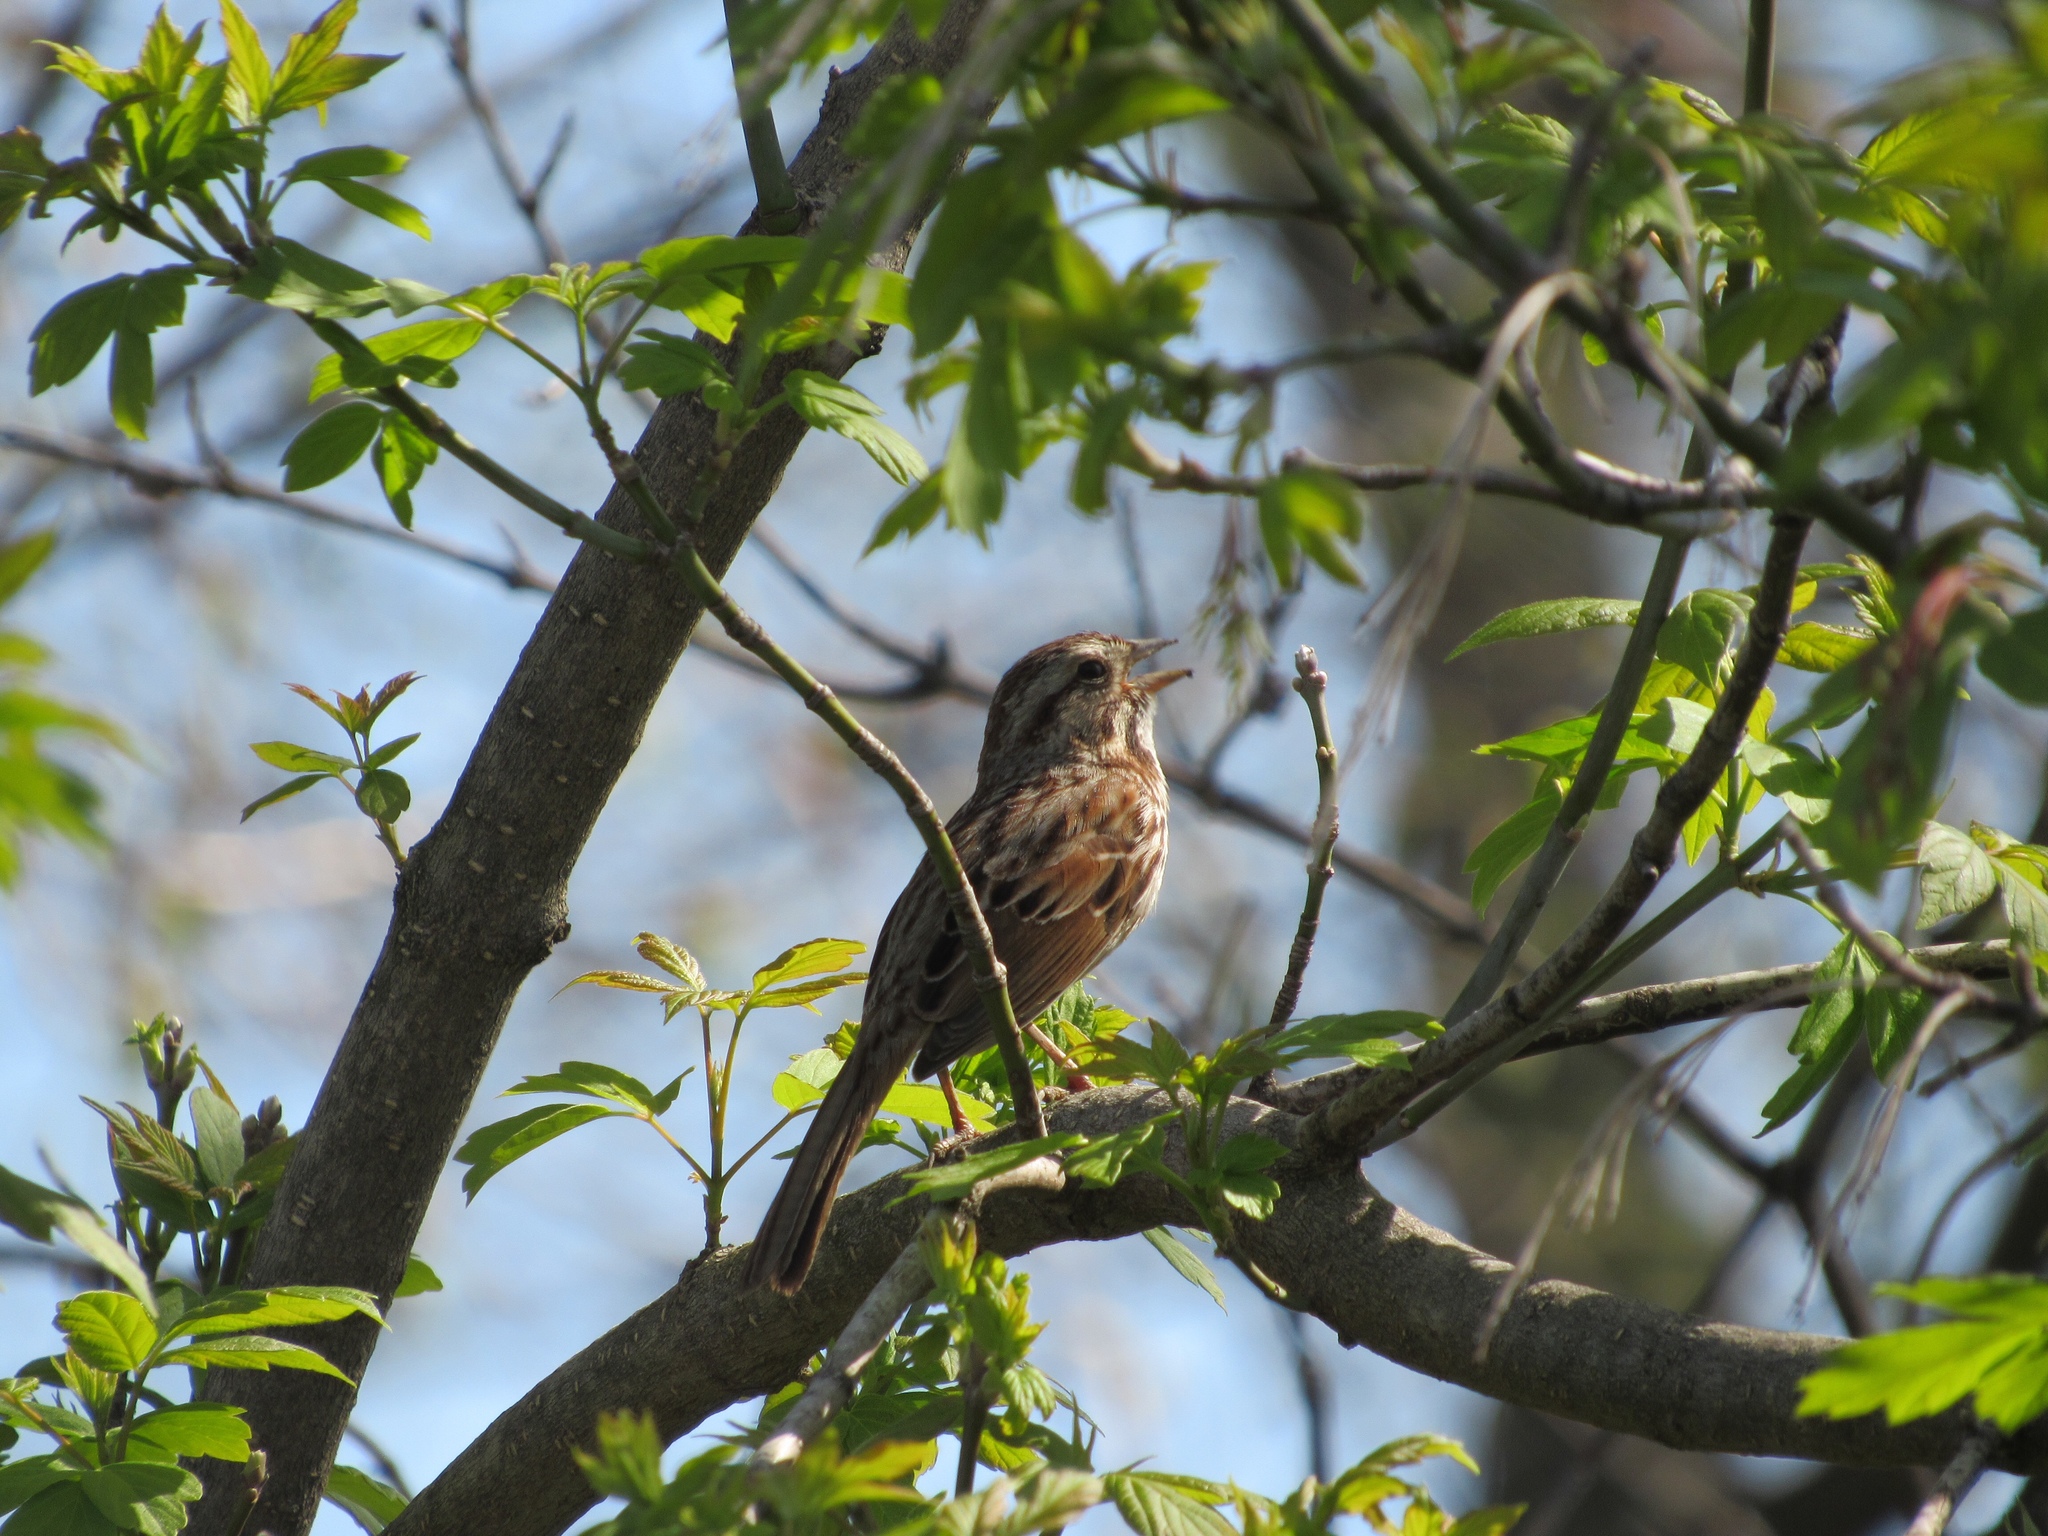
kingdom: Animalia
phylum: Chordata
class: Aves
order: Passeriformes
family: Passerellidae
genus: Melospiza
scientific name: Melospiza melodia
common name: Song sparrow
